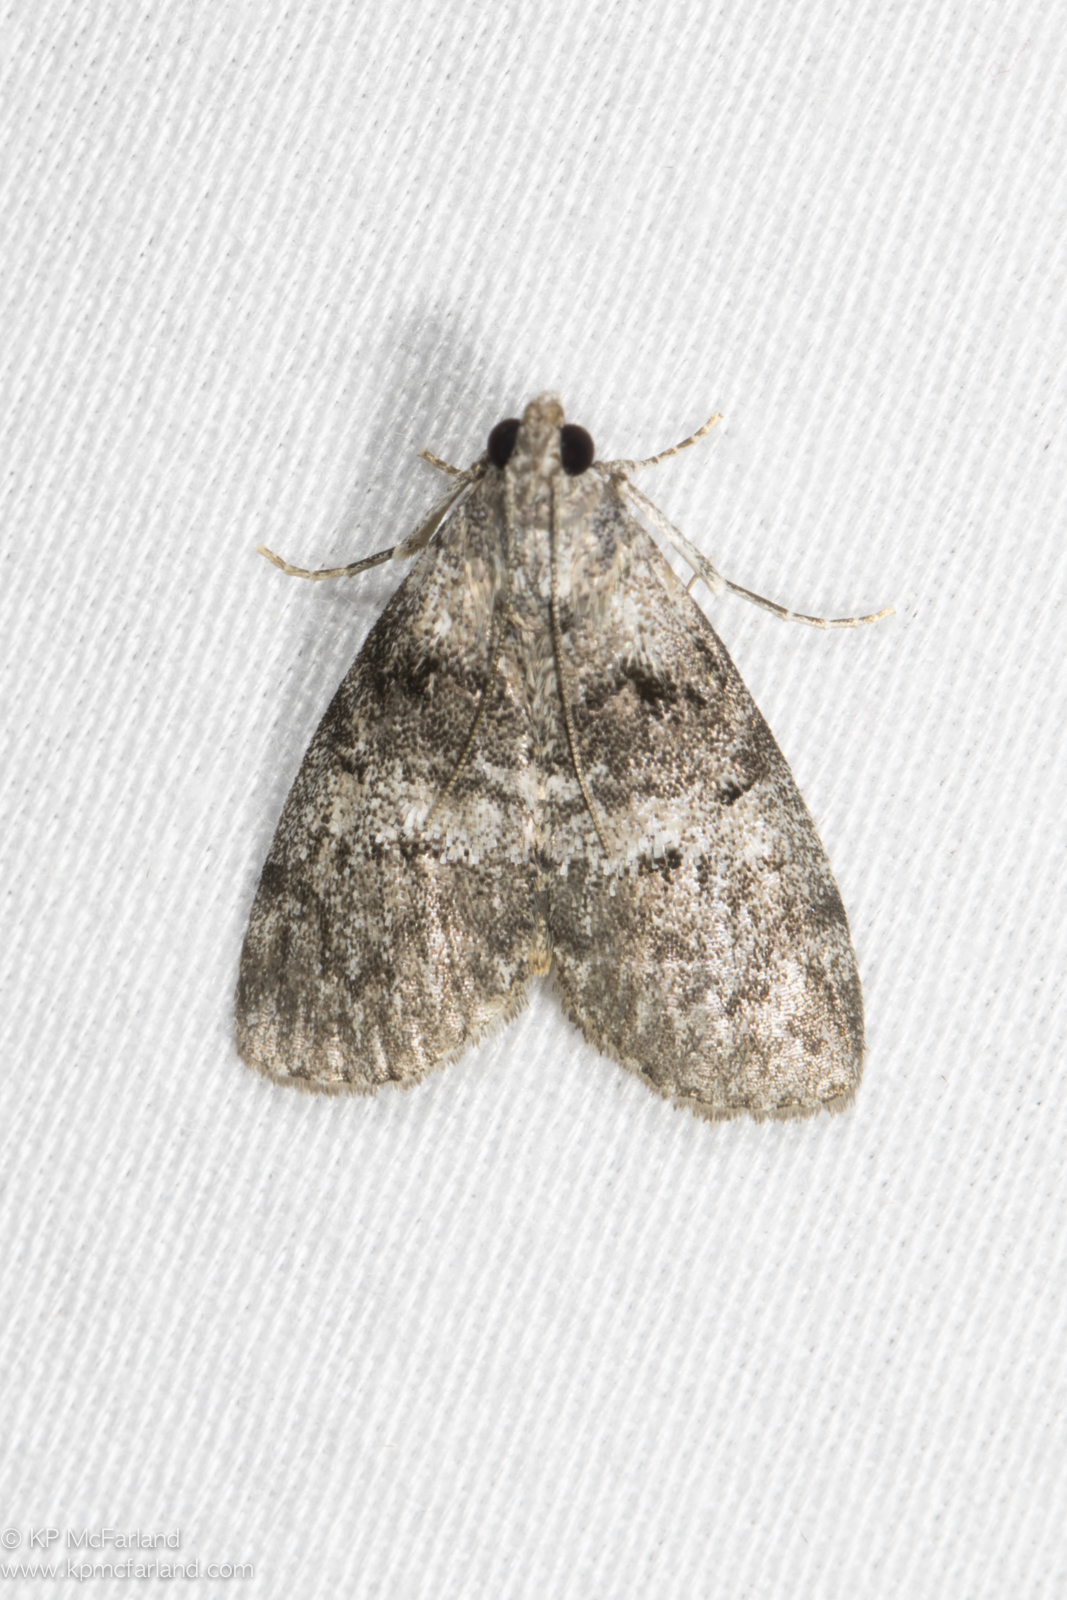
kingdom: Animalia
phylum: Arthropoda
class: Insecta
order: Lepidoptera
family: Pyralidae
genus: Pococera
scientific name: Pococera asperatella
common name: Maple webworm moth
